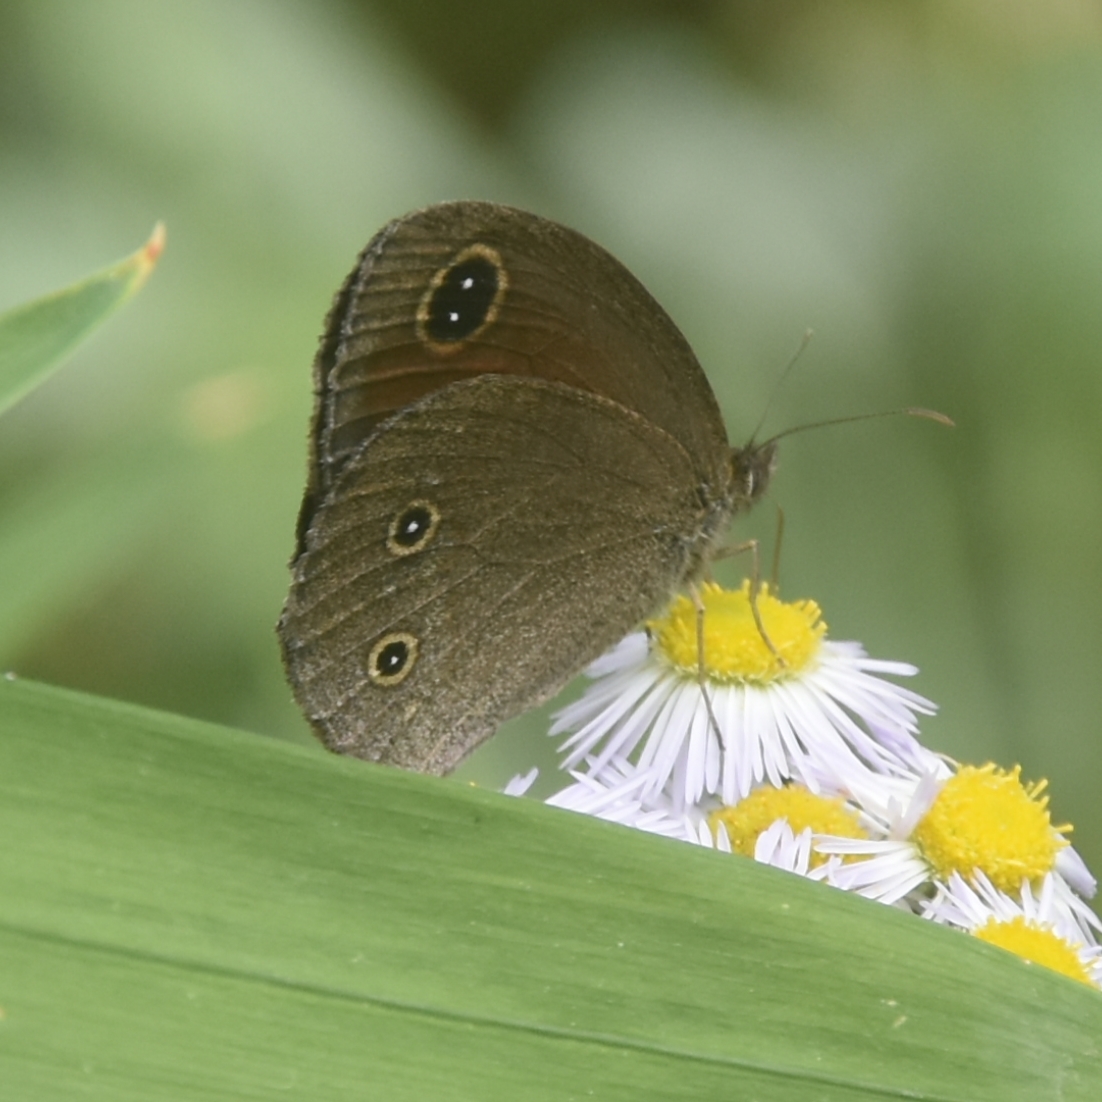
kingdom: Animalia
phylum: Arthropoda
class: Insecta
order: Lepidoptera
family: Nymphalidae
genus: Callerebia
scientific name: Callerebia nirmala
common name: Common argus
